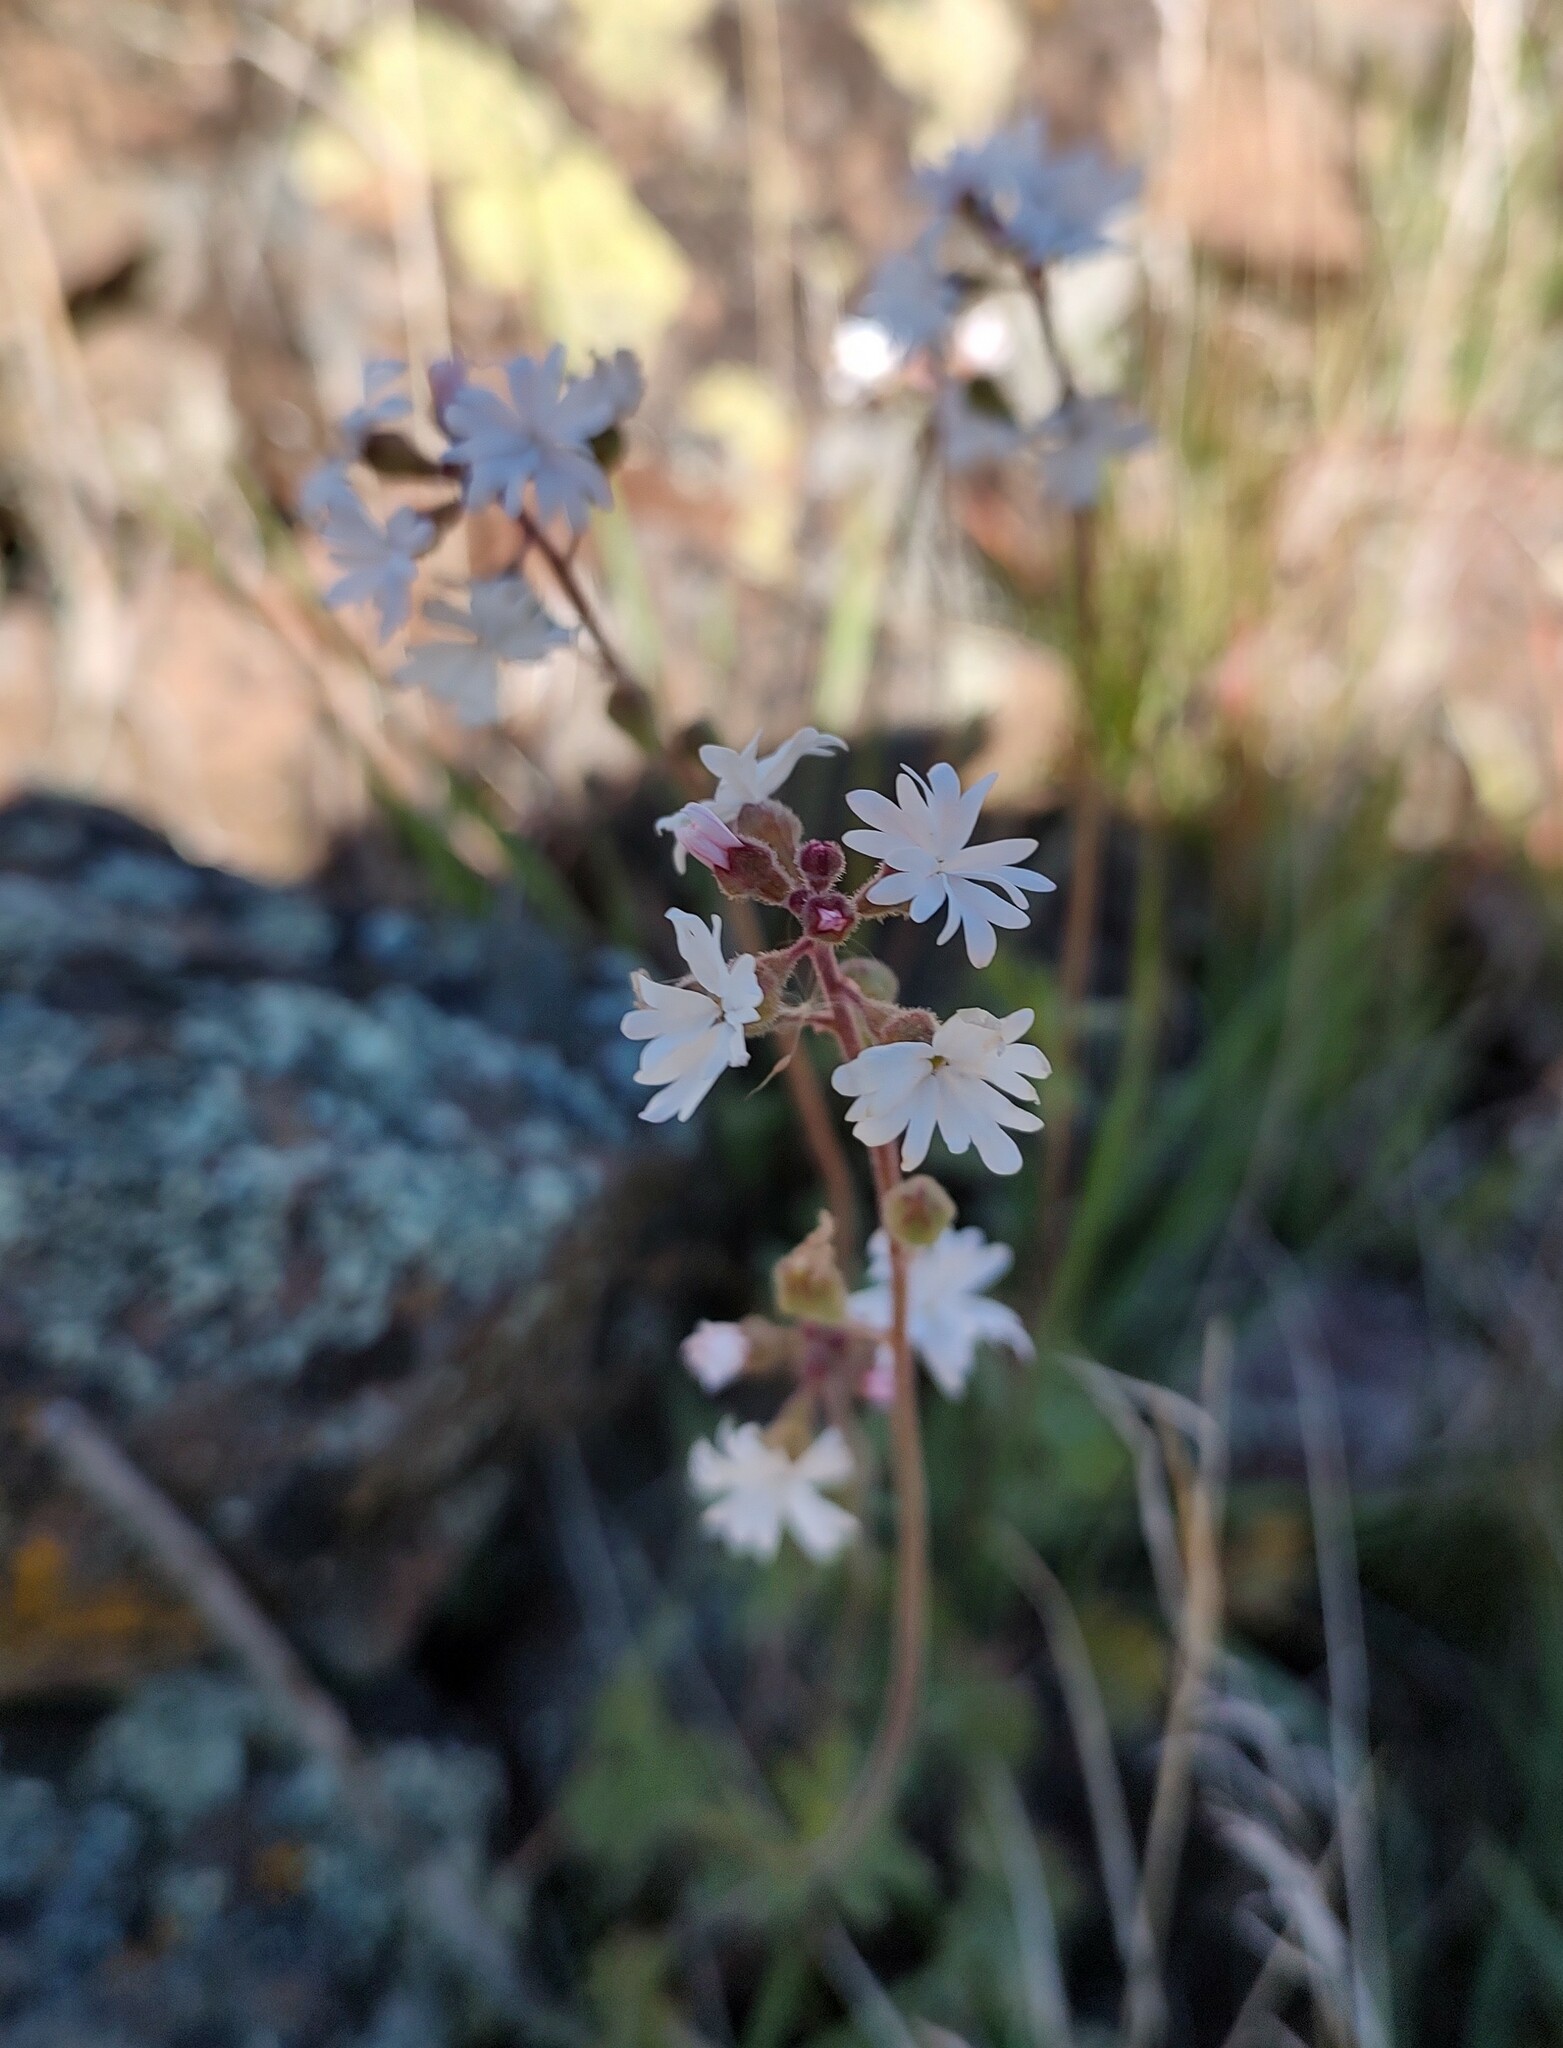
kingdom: Plantae
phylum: Tracheophyta
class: Magnoliopsida
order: Saxifragales
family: Saxifragaceae
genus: Lithophragma
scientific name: Lithophragma parviflorum
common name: Small-flowered fringe-cup
